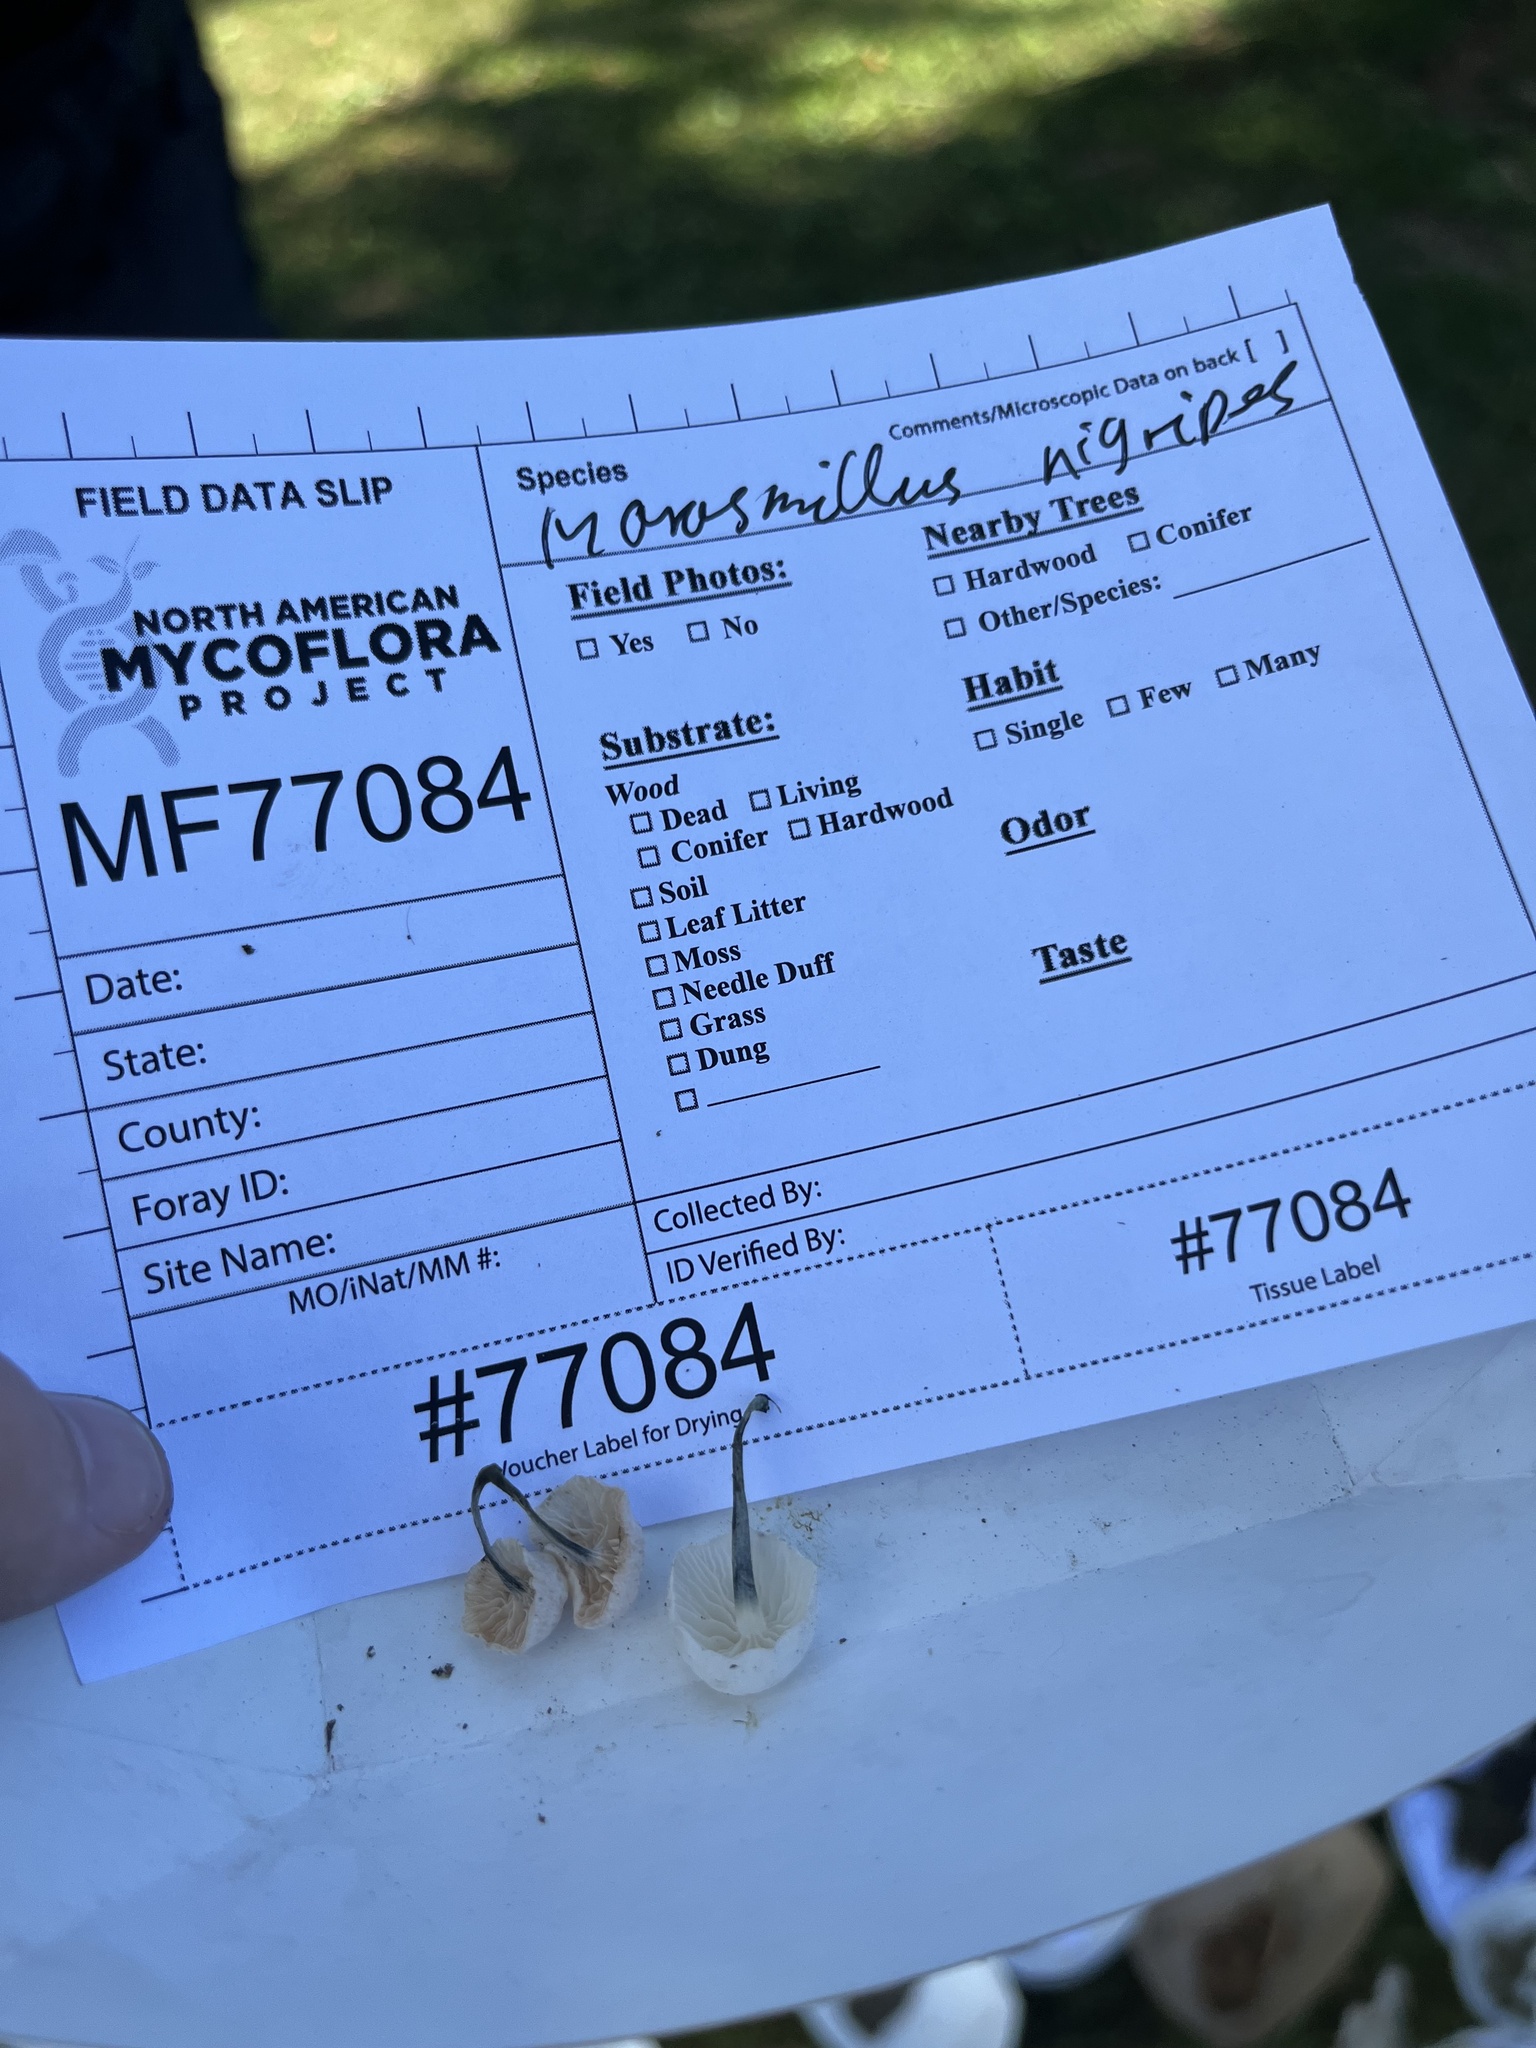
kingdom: Fungi
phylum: Basidiomycota
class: Agaricomycetes
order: Agaricales
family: Marasmiaceae
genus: Tetrapyrgos
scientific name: Tetrapyrgos nigripes
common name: Black-stalked marasmius
